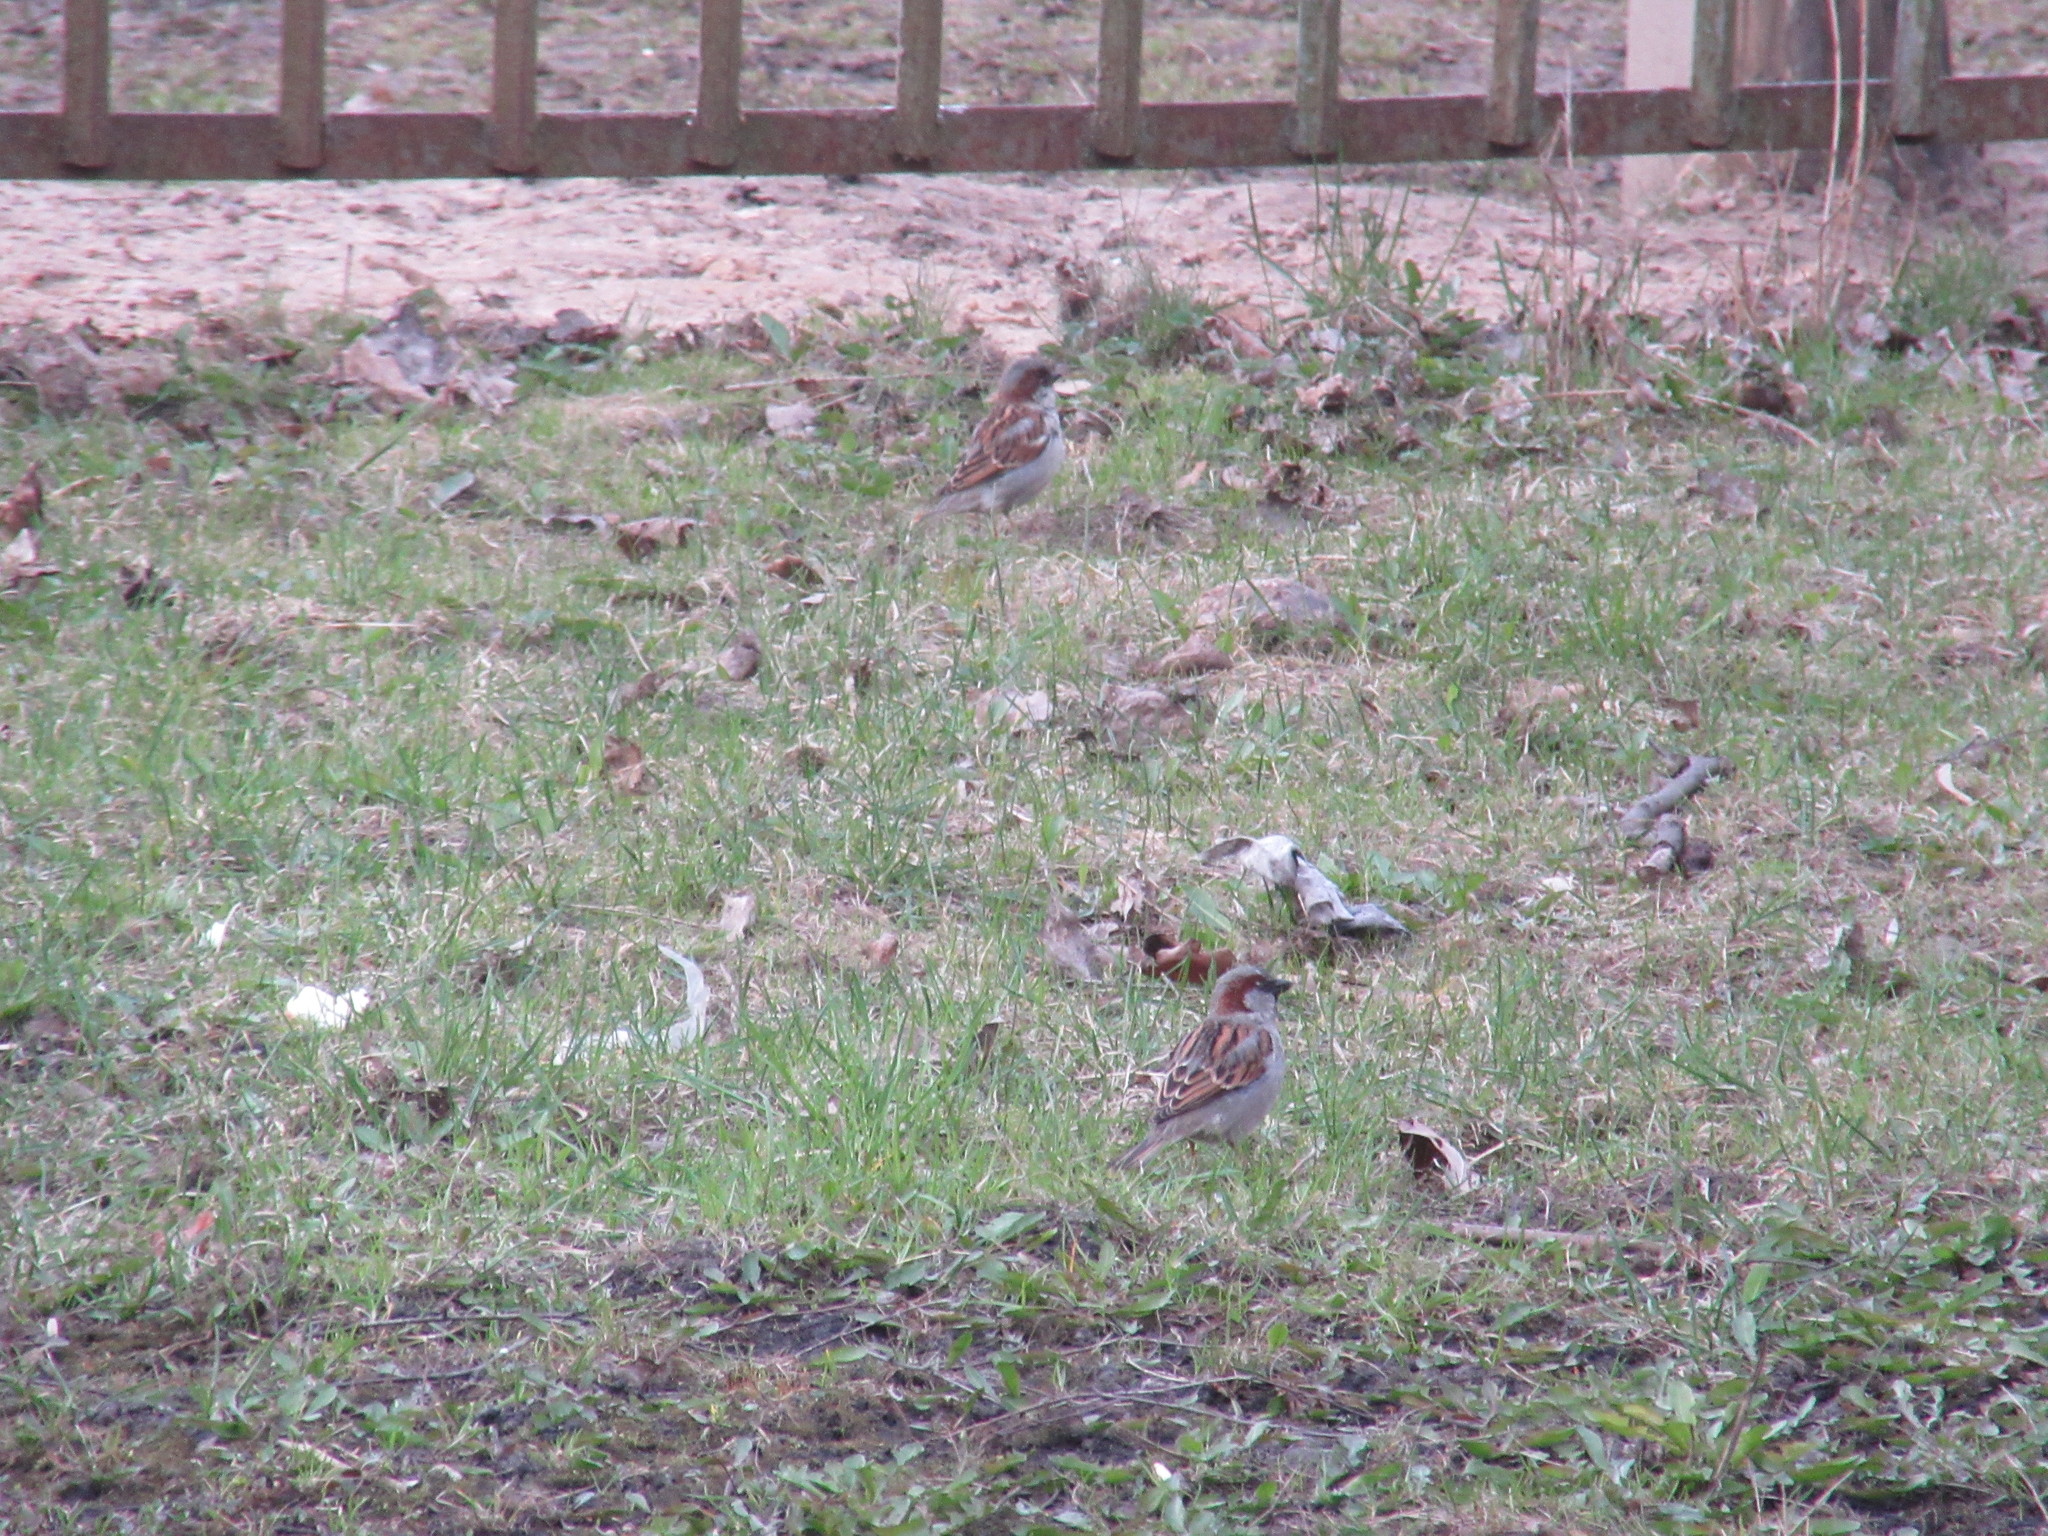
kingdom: Animalia
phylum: Chordata
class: Aves
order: Passeriformes
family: Passeridae
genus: Passer
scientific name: Passer domesticus
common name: House sparrow
